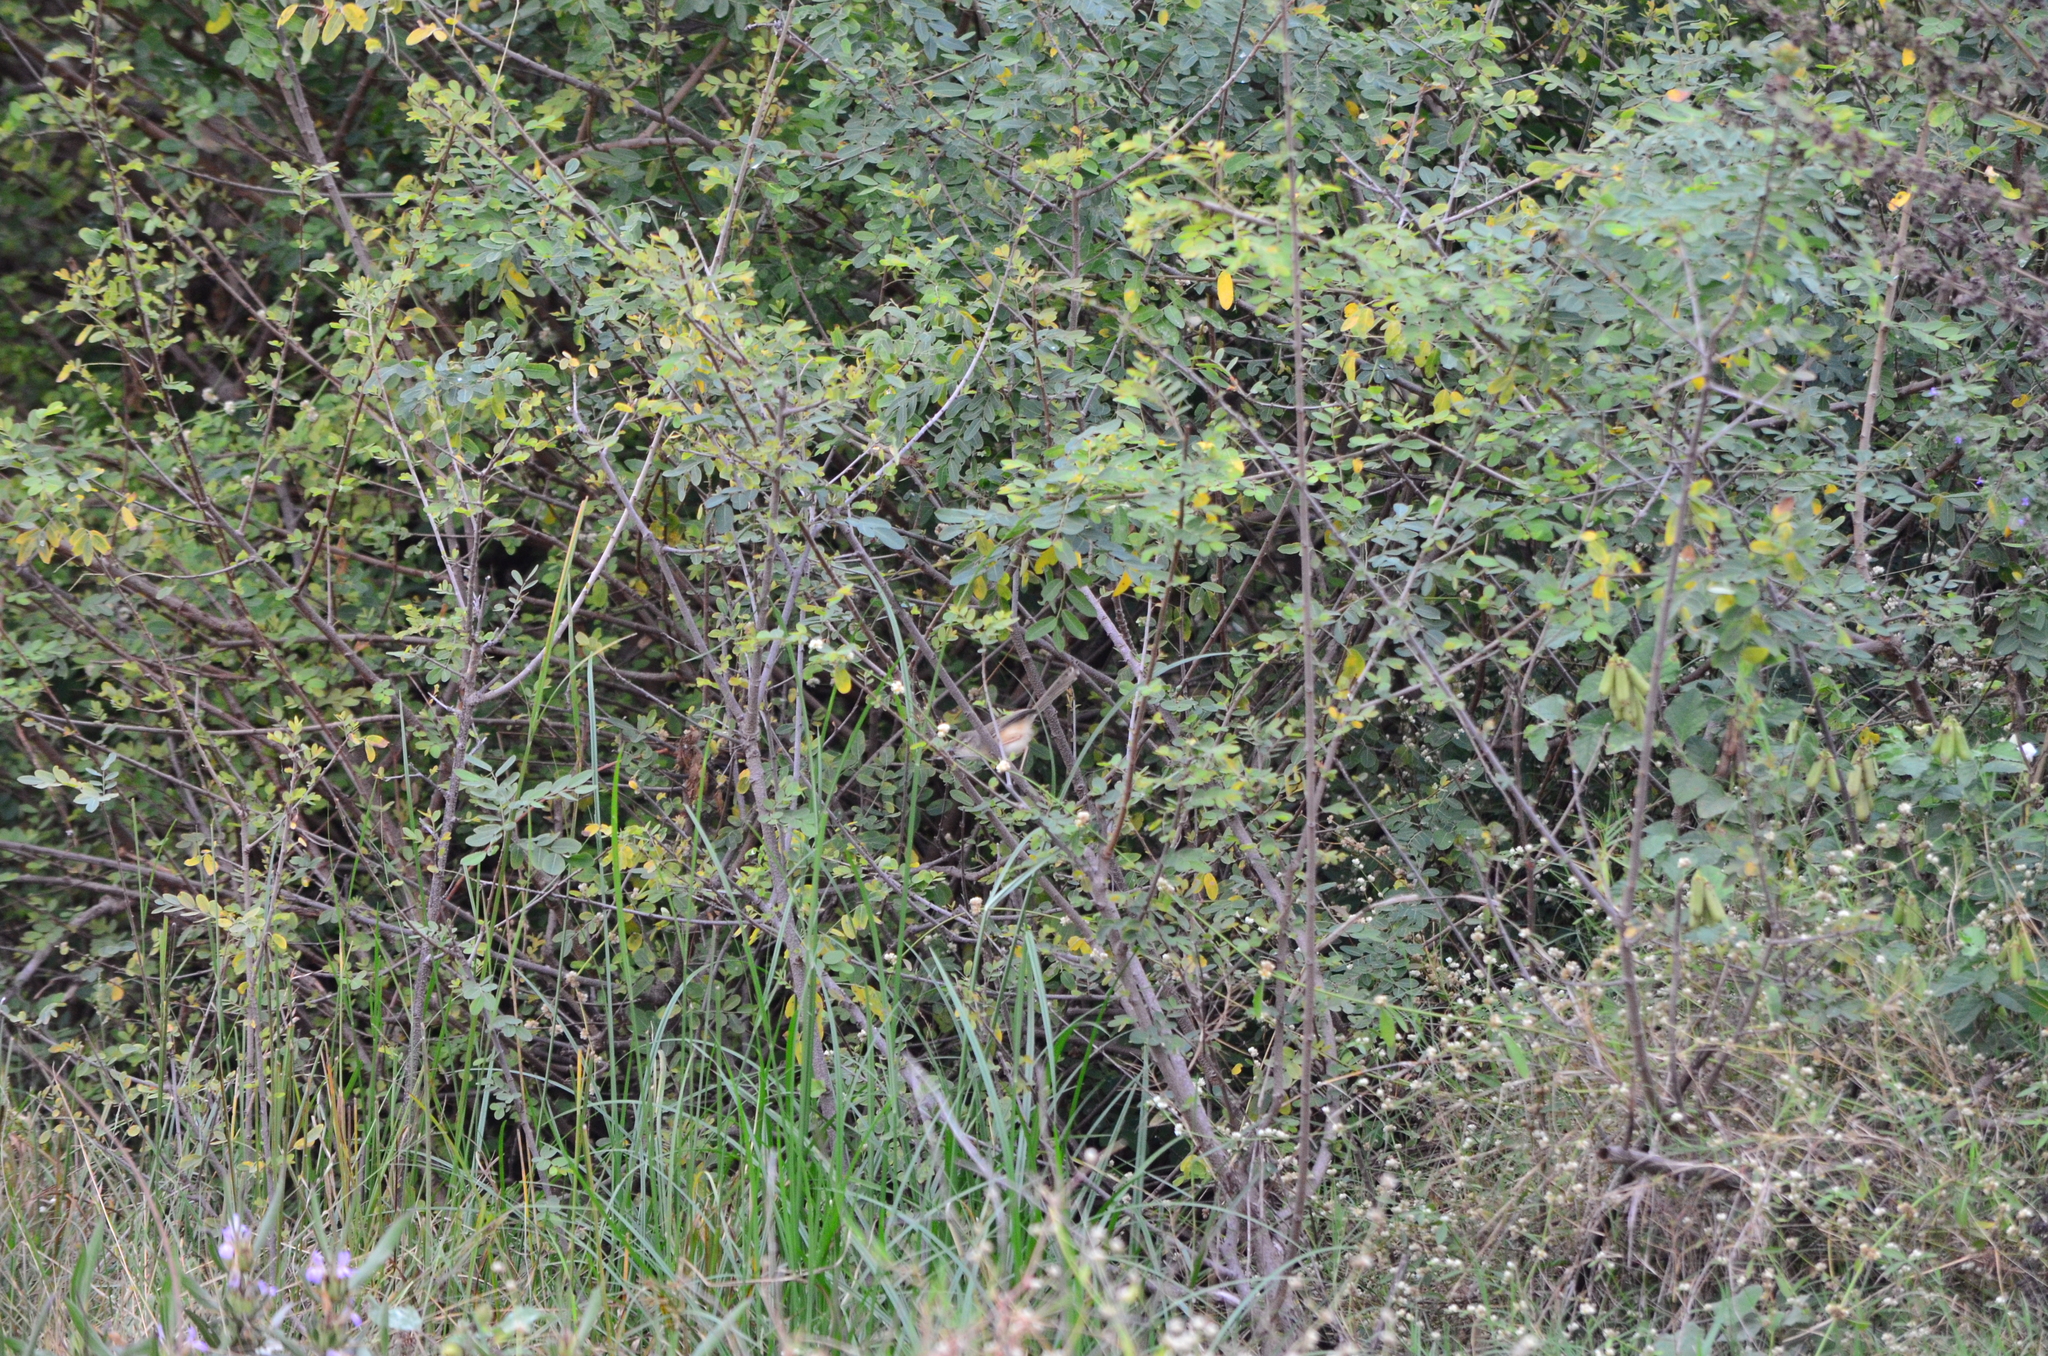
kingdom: Animalia
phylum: Chordata
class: Aves
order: Passeriformes
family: Cisticolidae
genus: Prinia
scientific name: Prinia inornata
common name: Plain prinia
